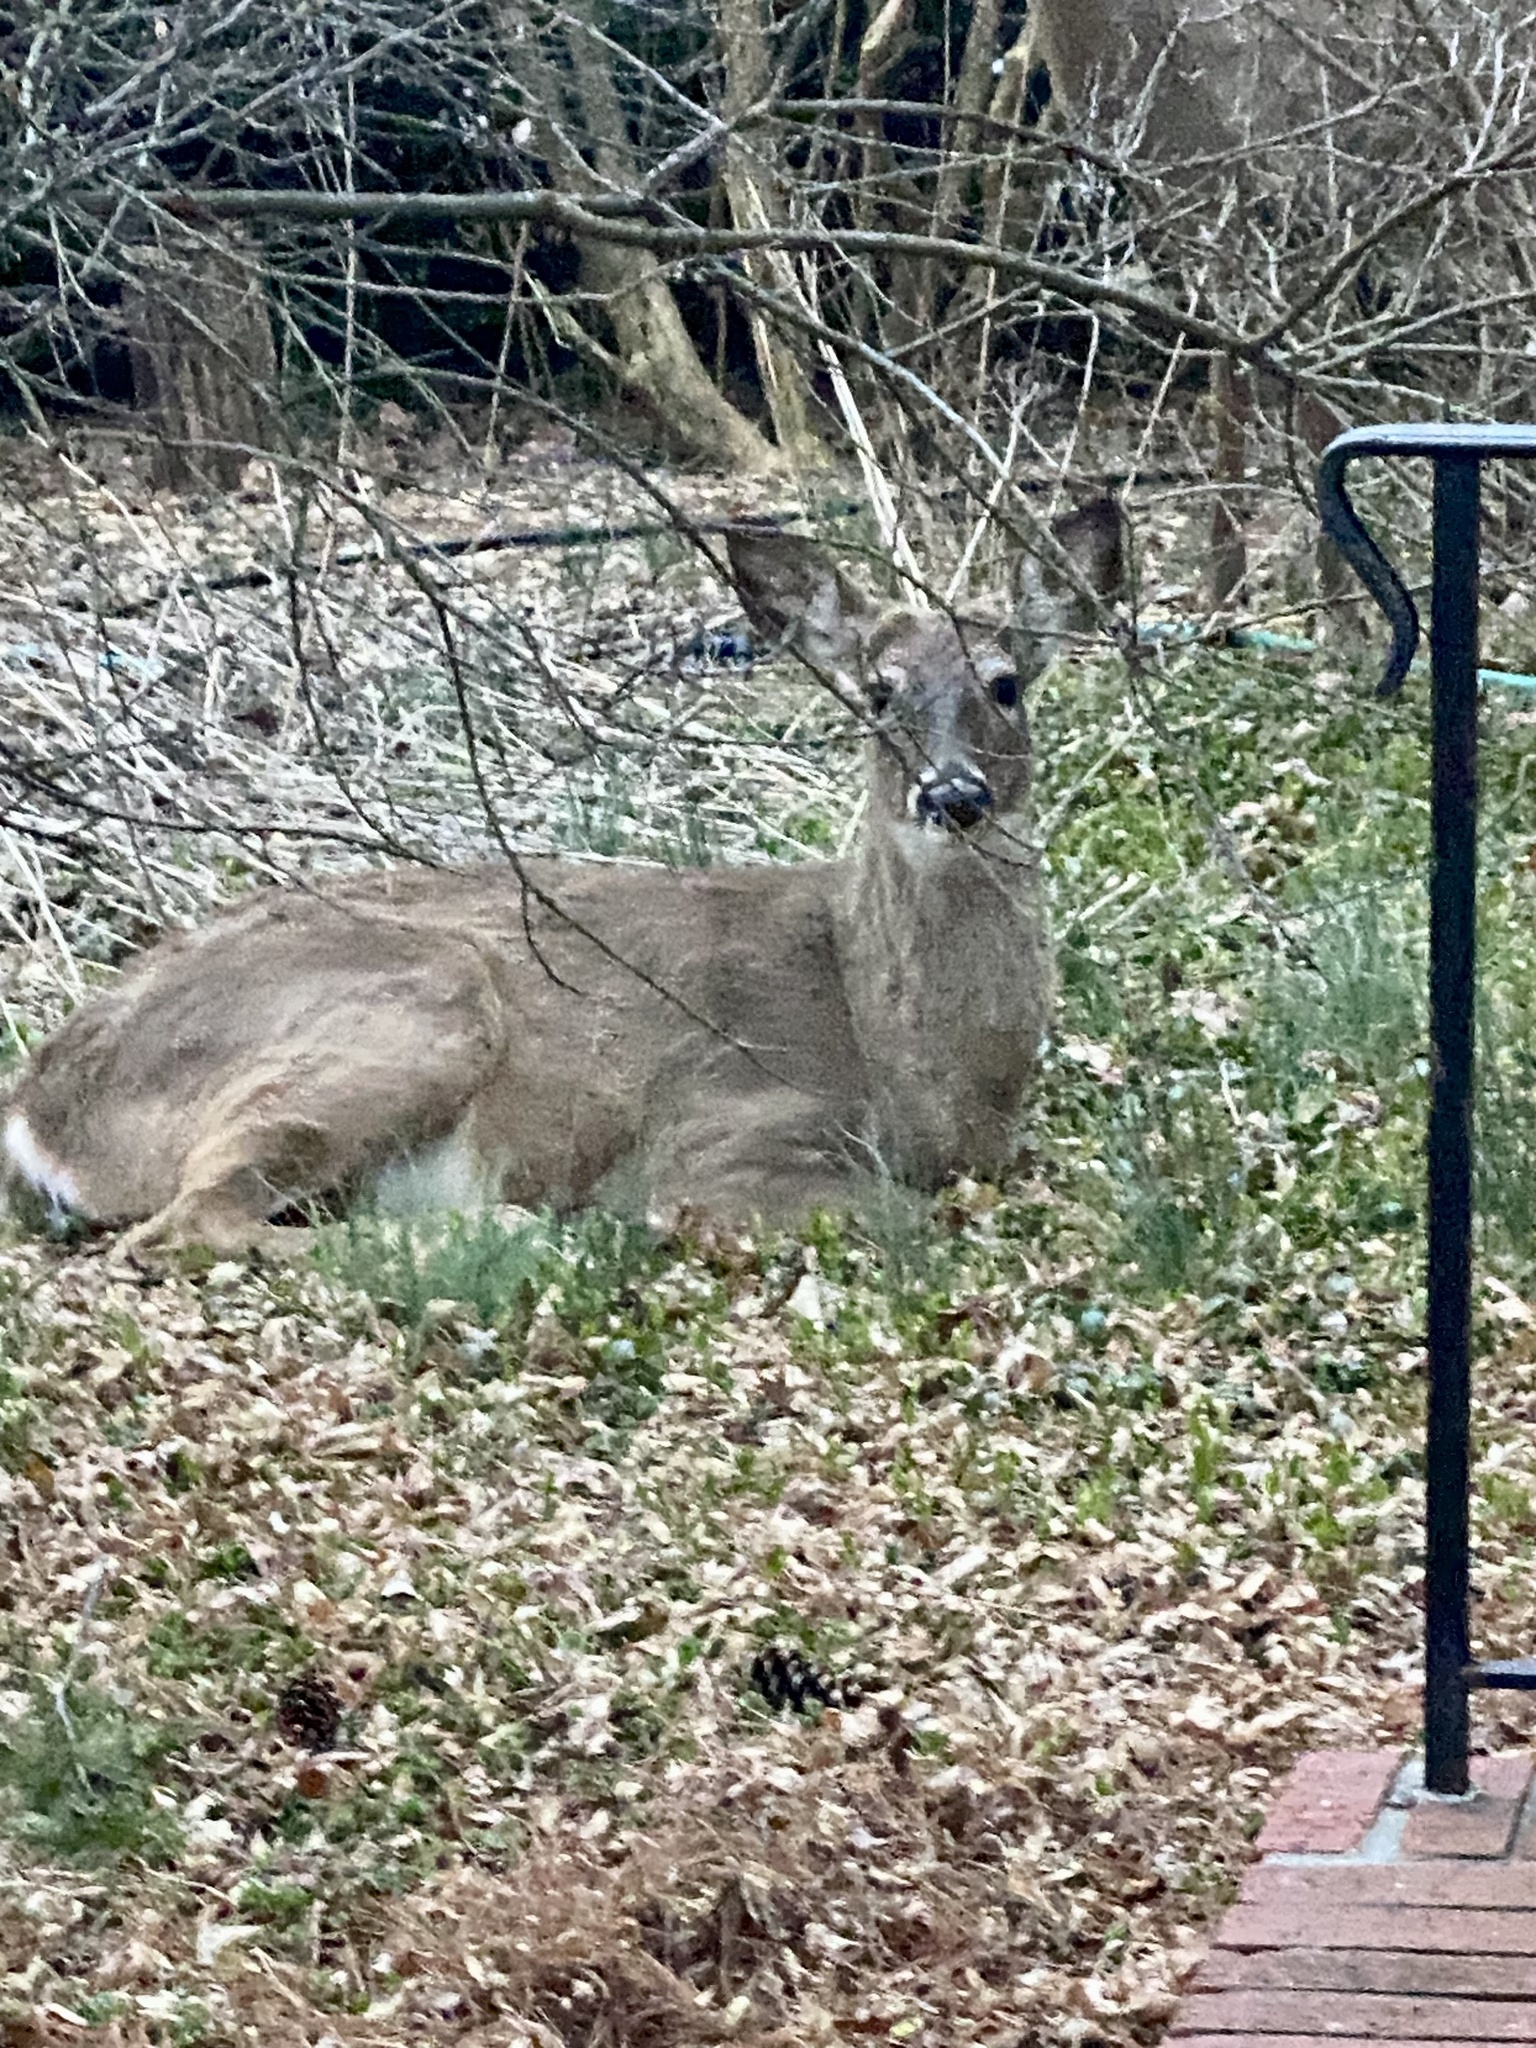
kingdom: Animalia
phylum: Chordata
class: Mammalia
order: Artiodactyla
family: Cervidae
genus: Odocoileus
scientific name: Odocoileus virginianus
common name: White-tailed deer
